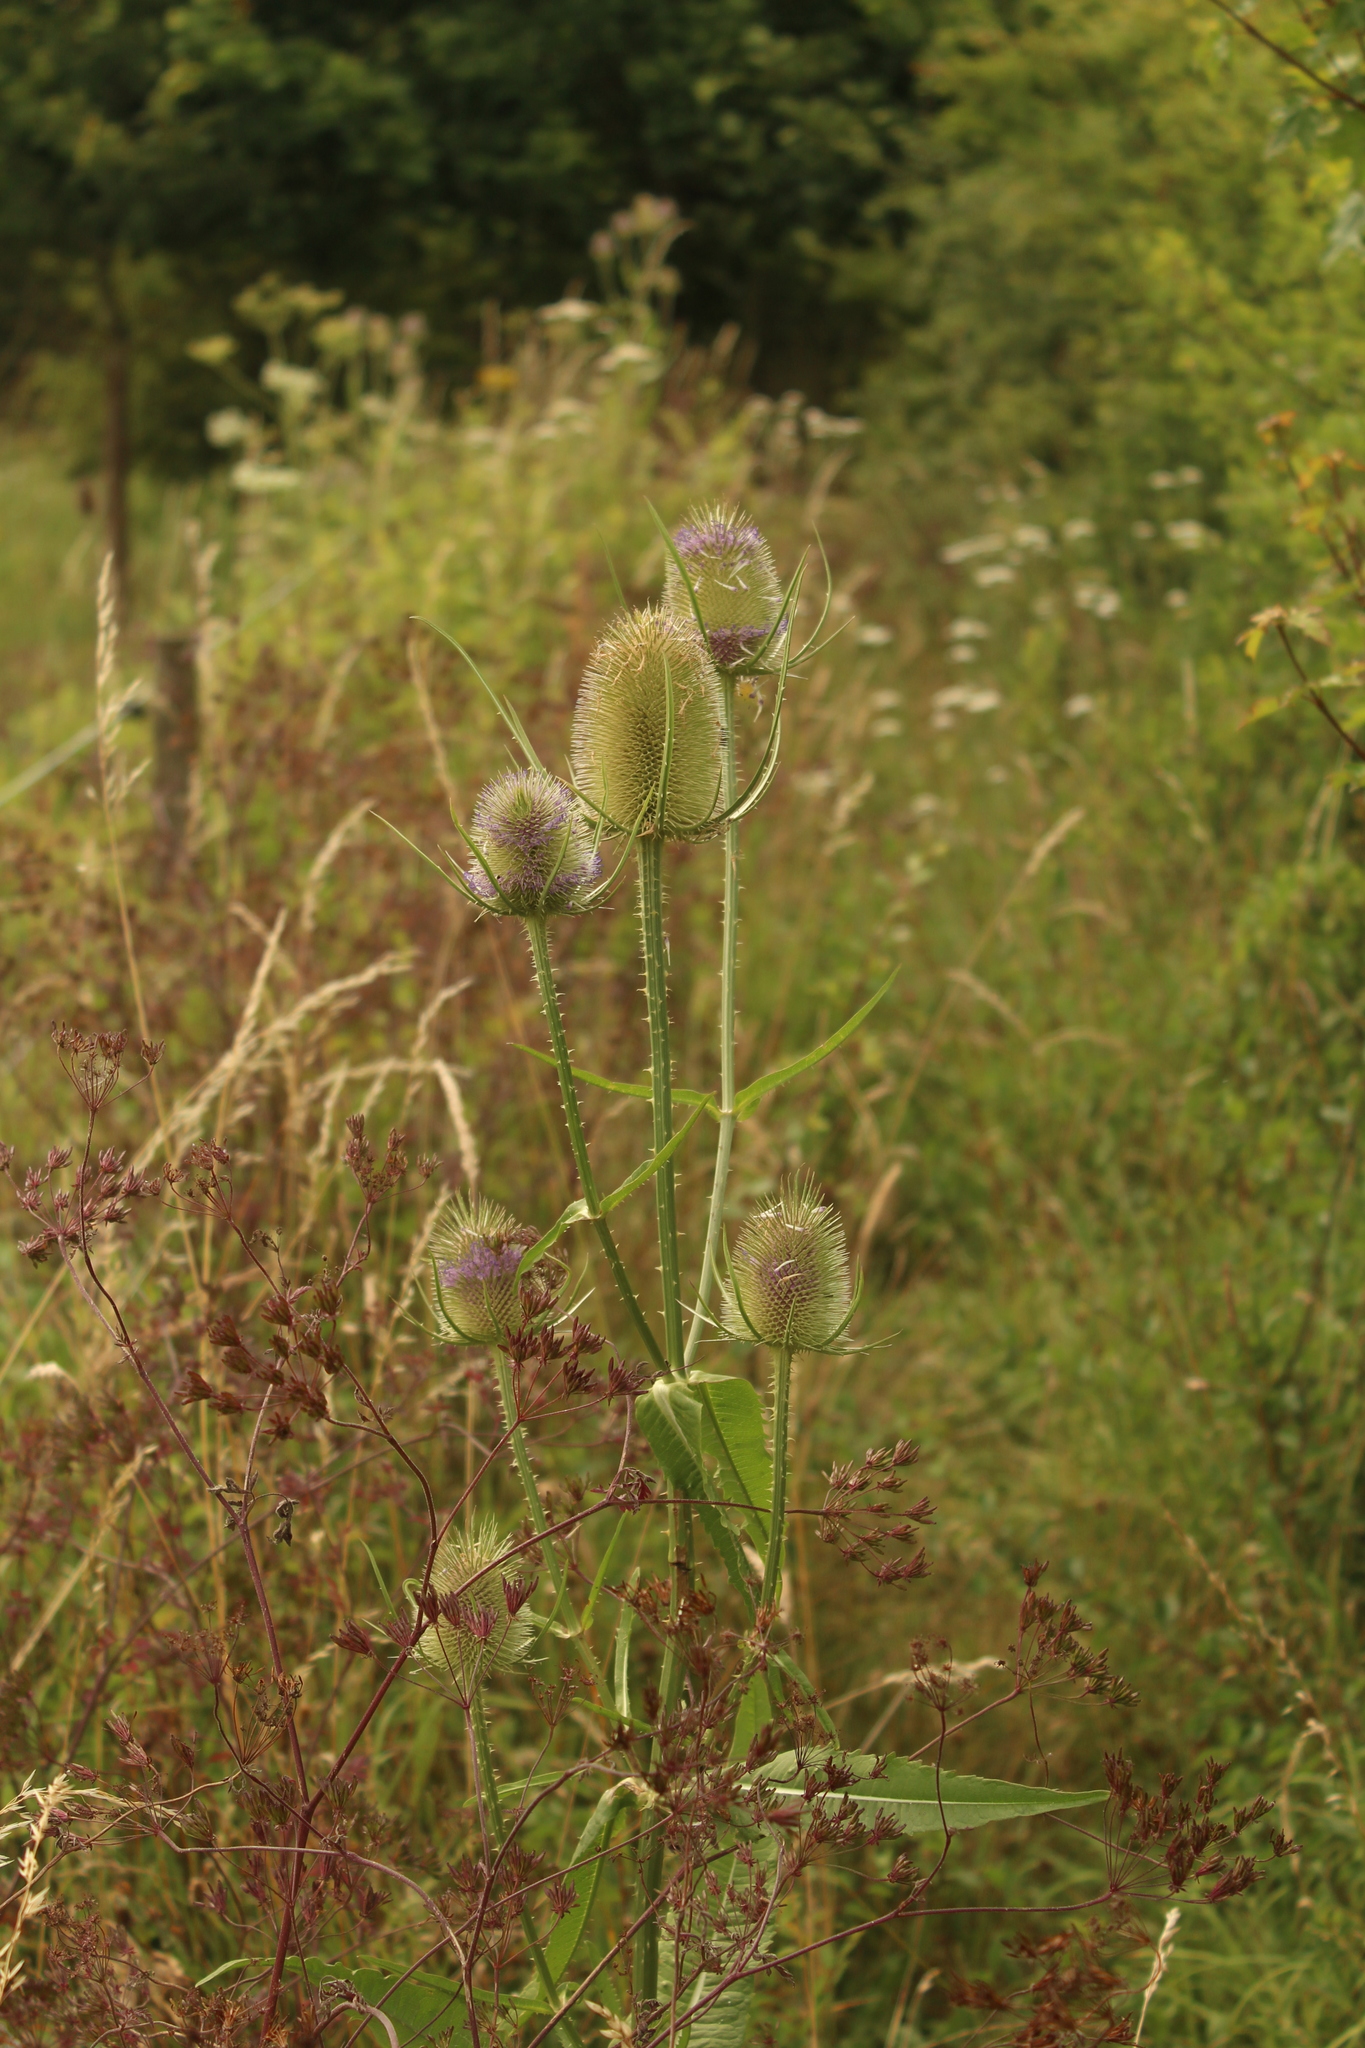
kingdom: Plantae
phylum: Tracheophyta
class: Magnoliopsida
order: Dipsacales
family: Caprifoliaceae
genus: Dipsacus
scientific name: Dipsacus fullonum
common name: Teasel
